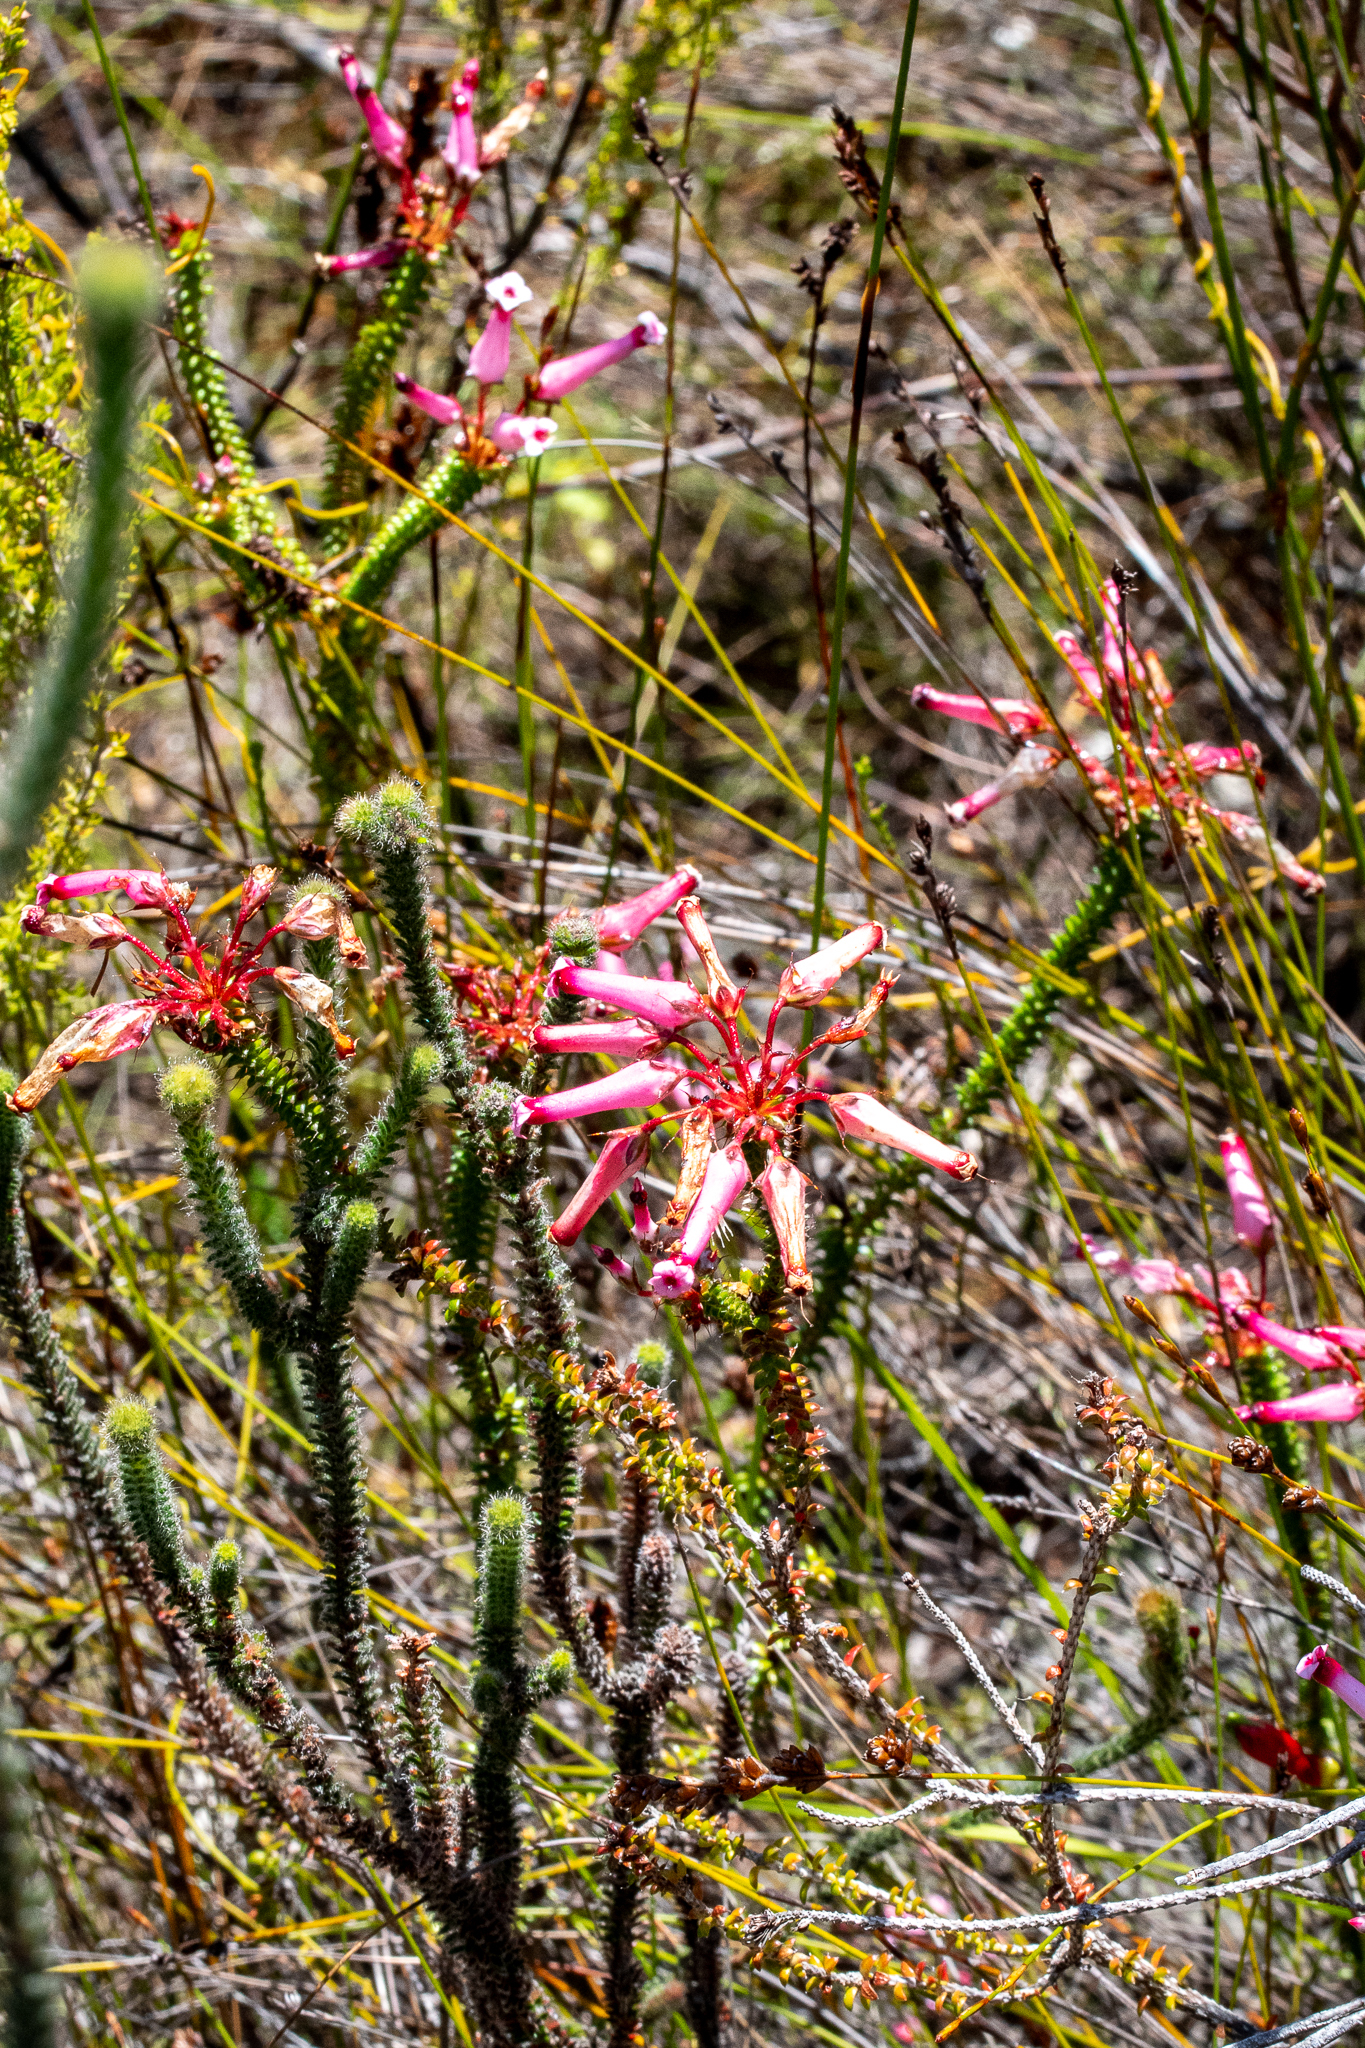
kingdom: Plantae
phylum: Tracheophyta
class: Magnoliopsida
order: Ericales
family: Ericaceae
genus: Erica
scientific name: Erica retorta
